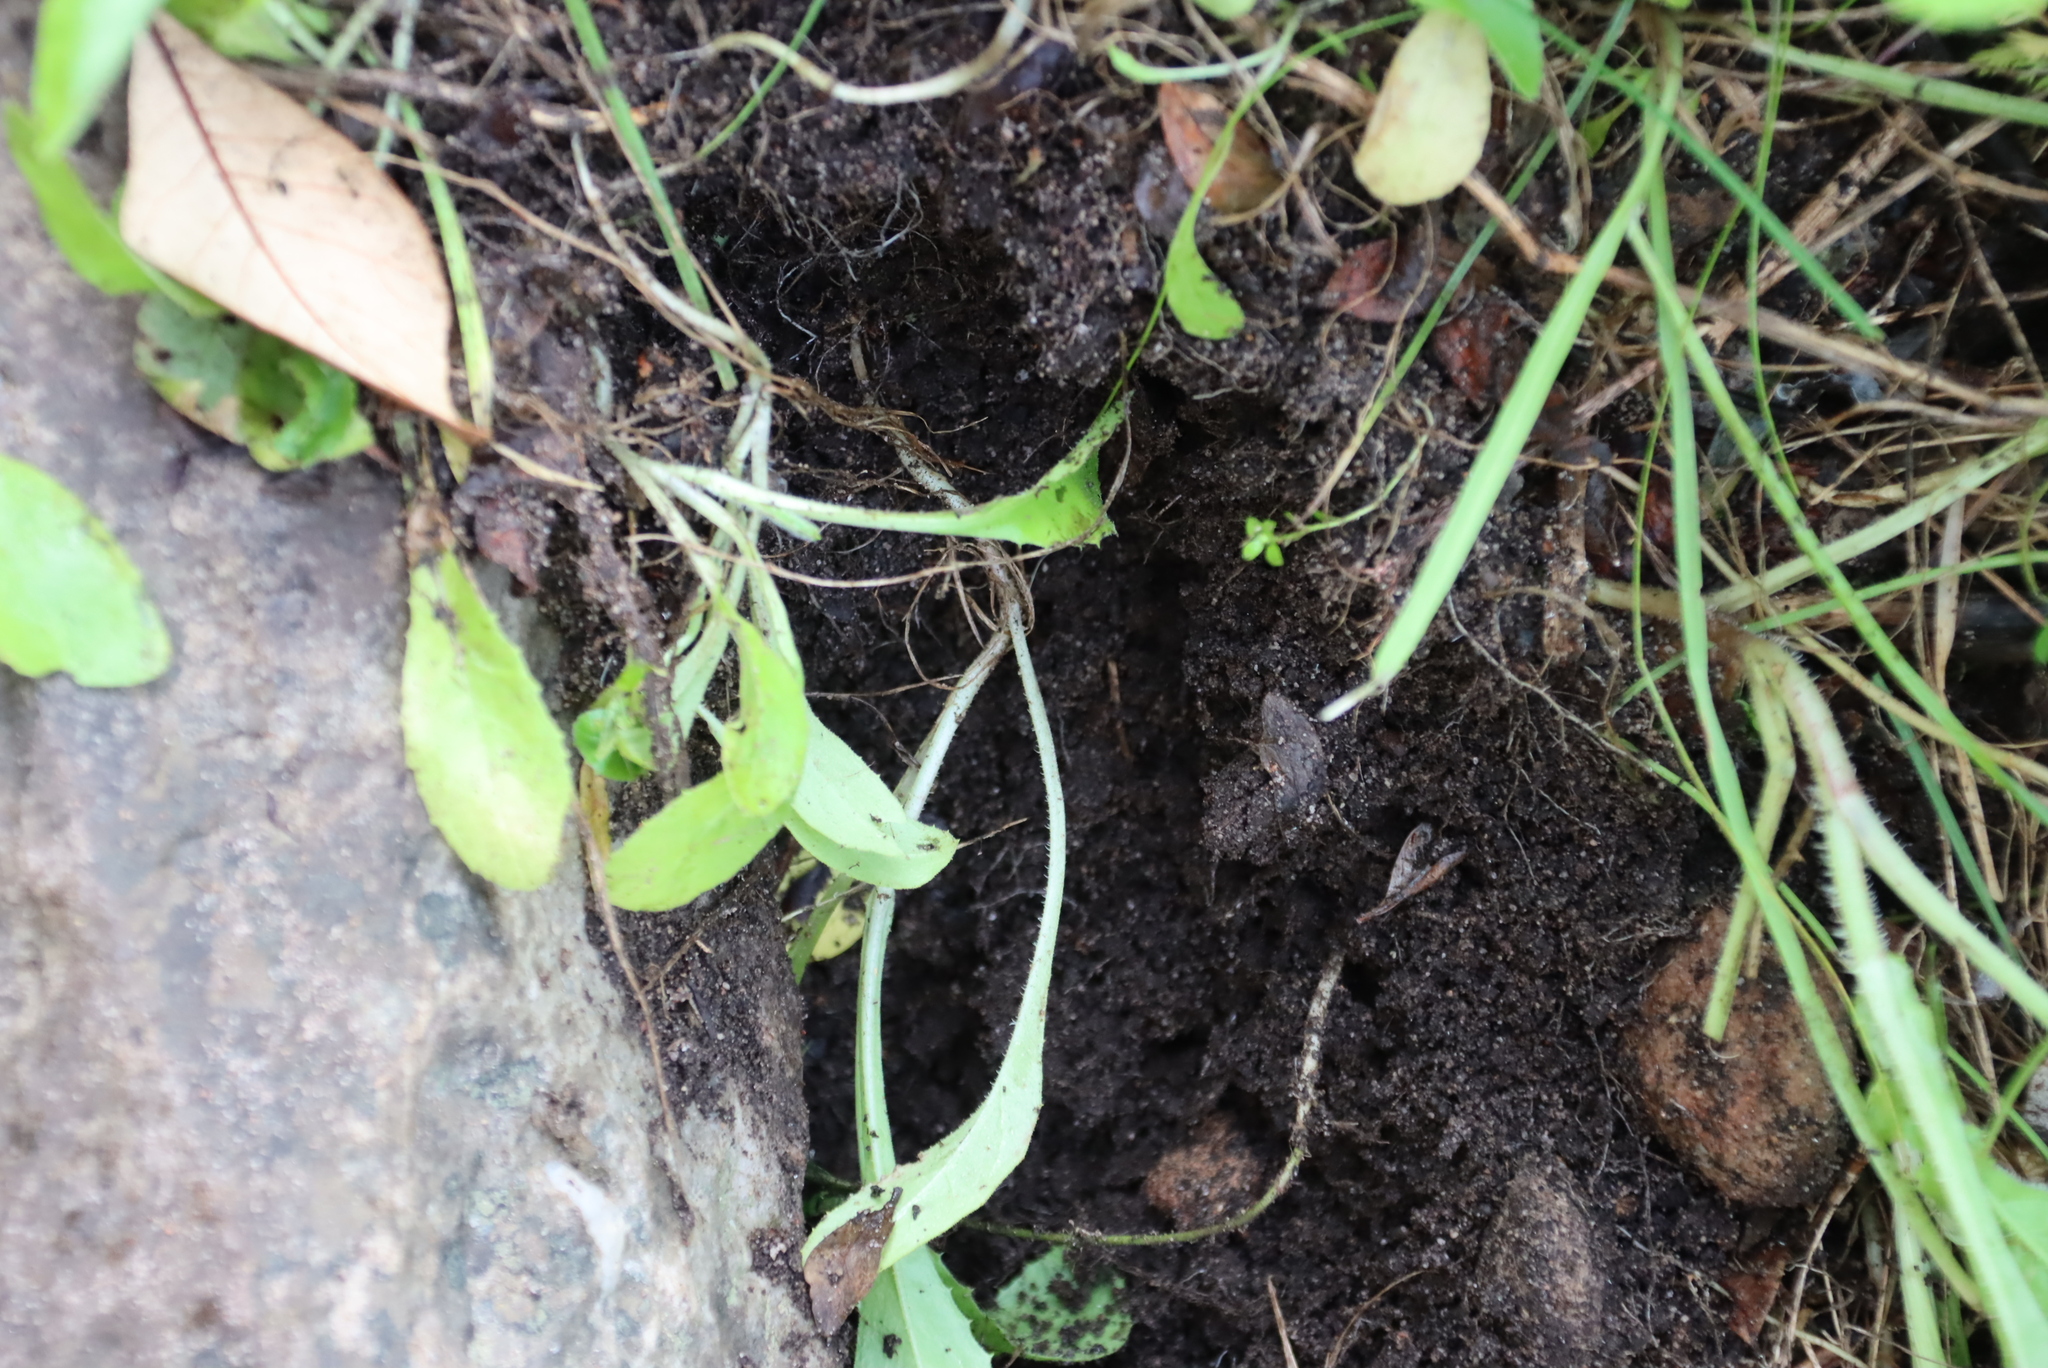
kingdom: Animalia
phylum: Chordata
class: Mammalia
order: Rodentia
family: Bathyergidae
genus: Georychus
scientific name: Georychus capensis
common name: Cape mole-rat
